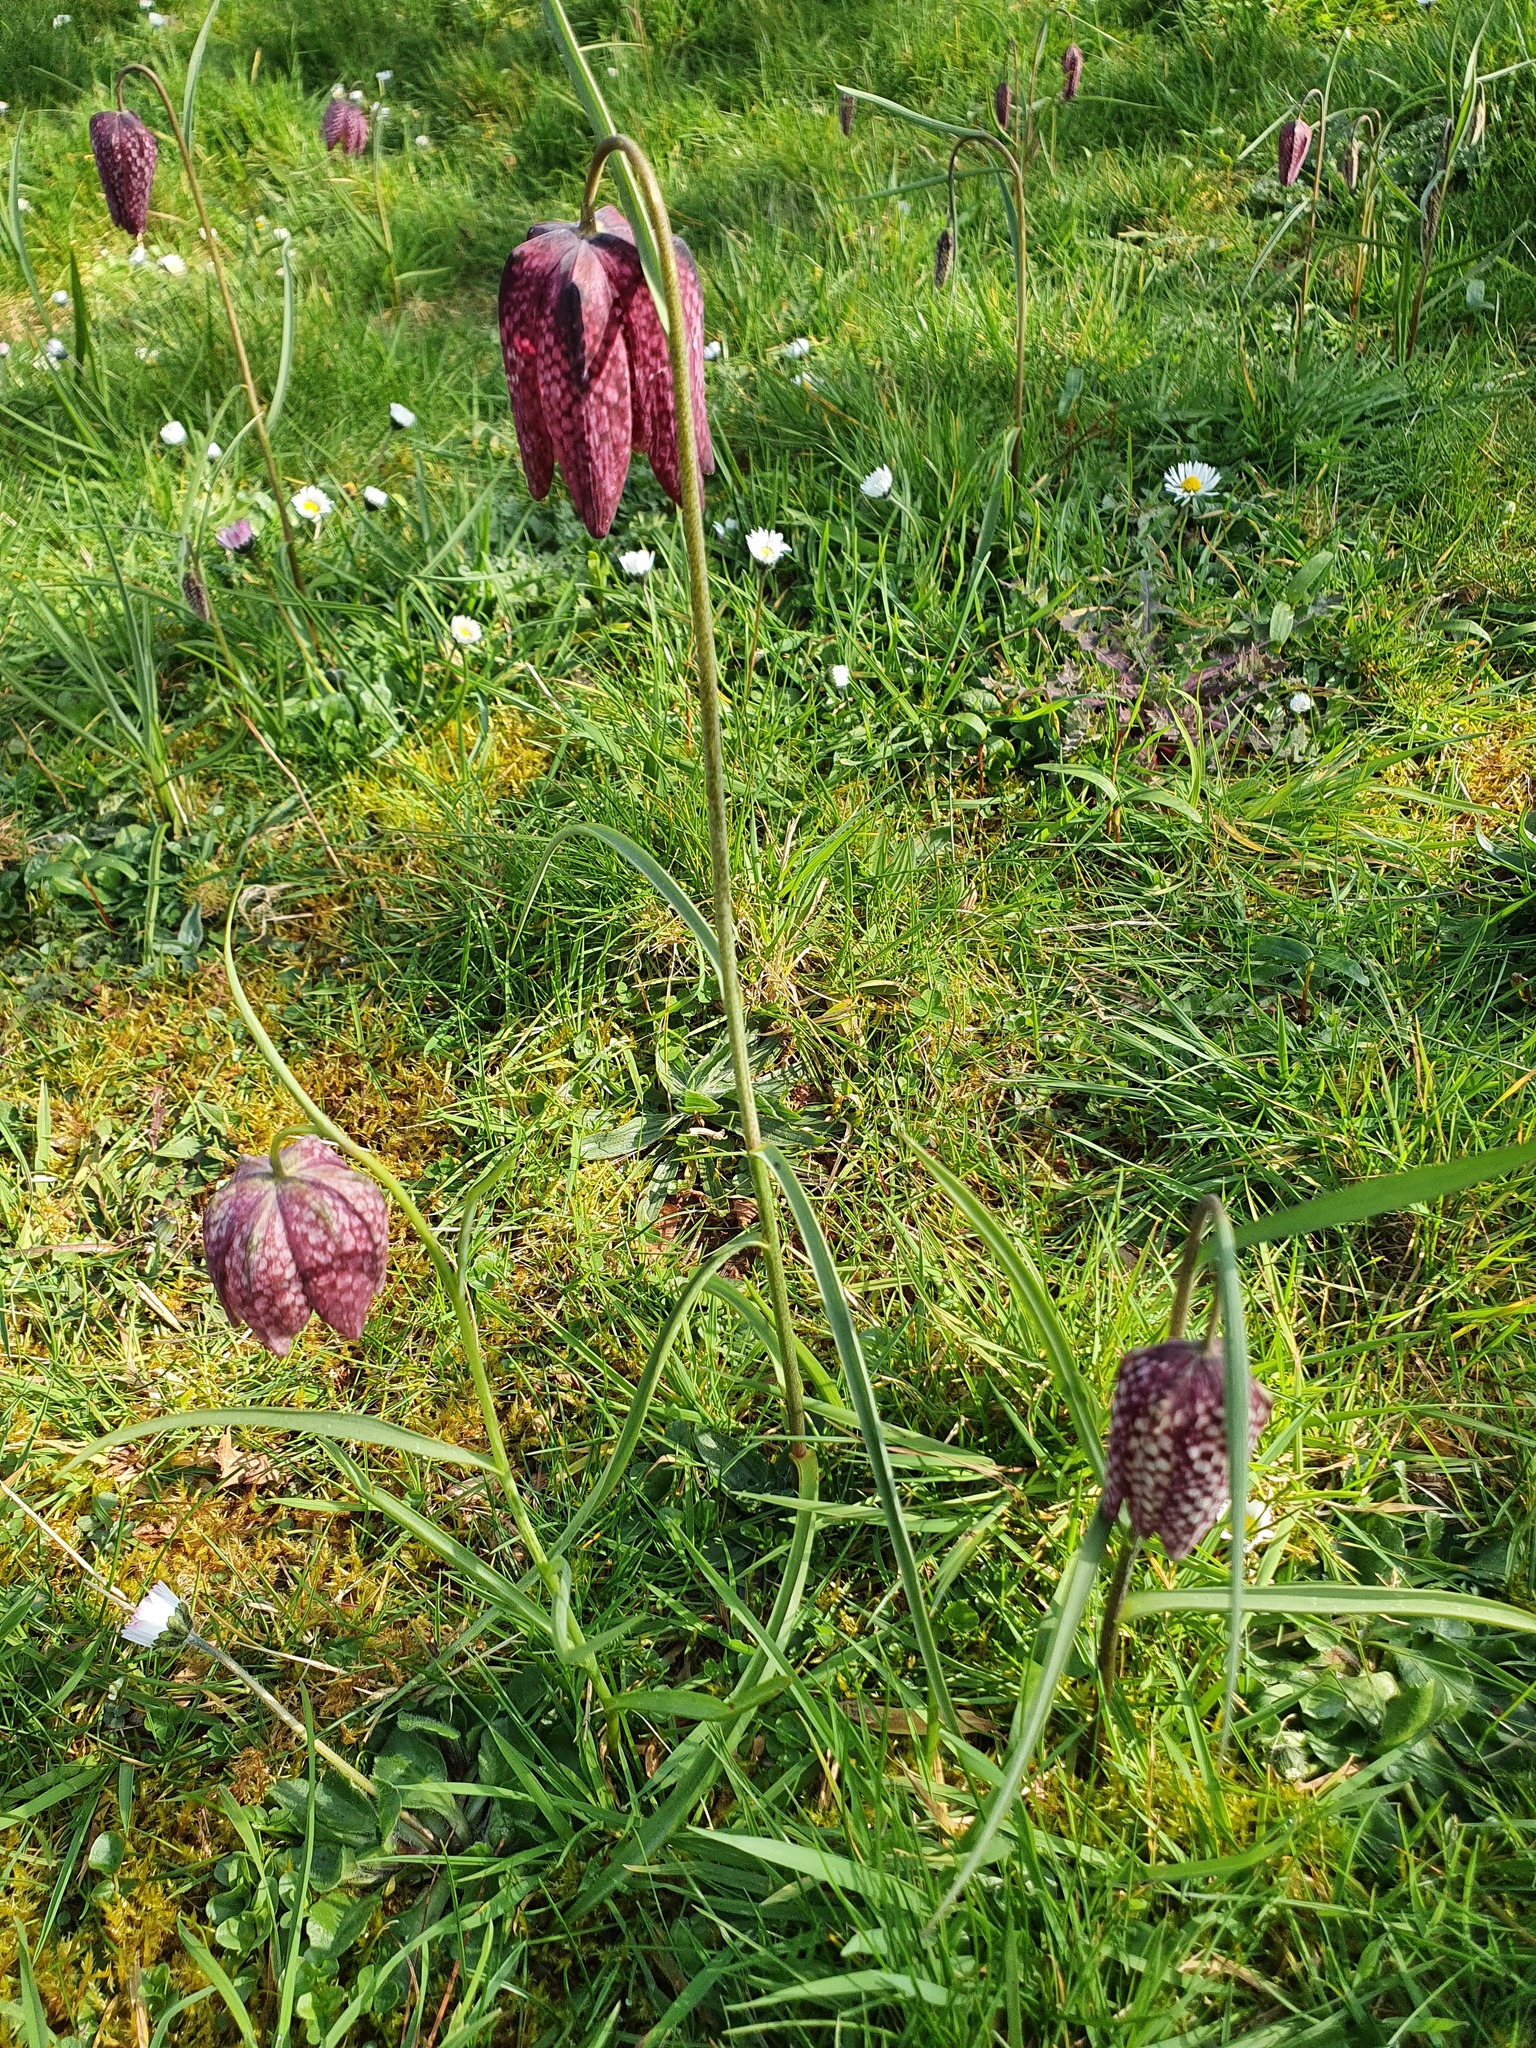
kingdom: Plantae
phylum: Tracheophyta
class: Liliopsida
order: Liliales
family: Liliaceae
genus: Fritillaria
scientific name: Fritillaria meleagris
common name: Fritillary
